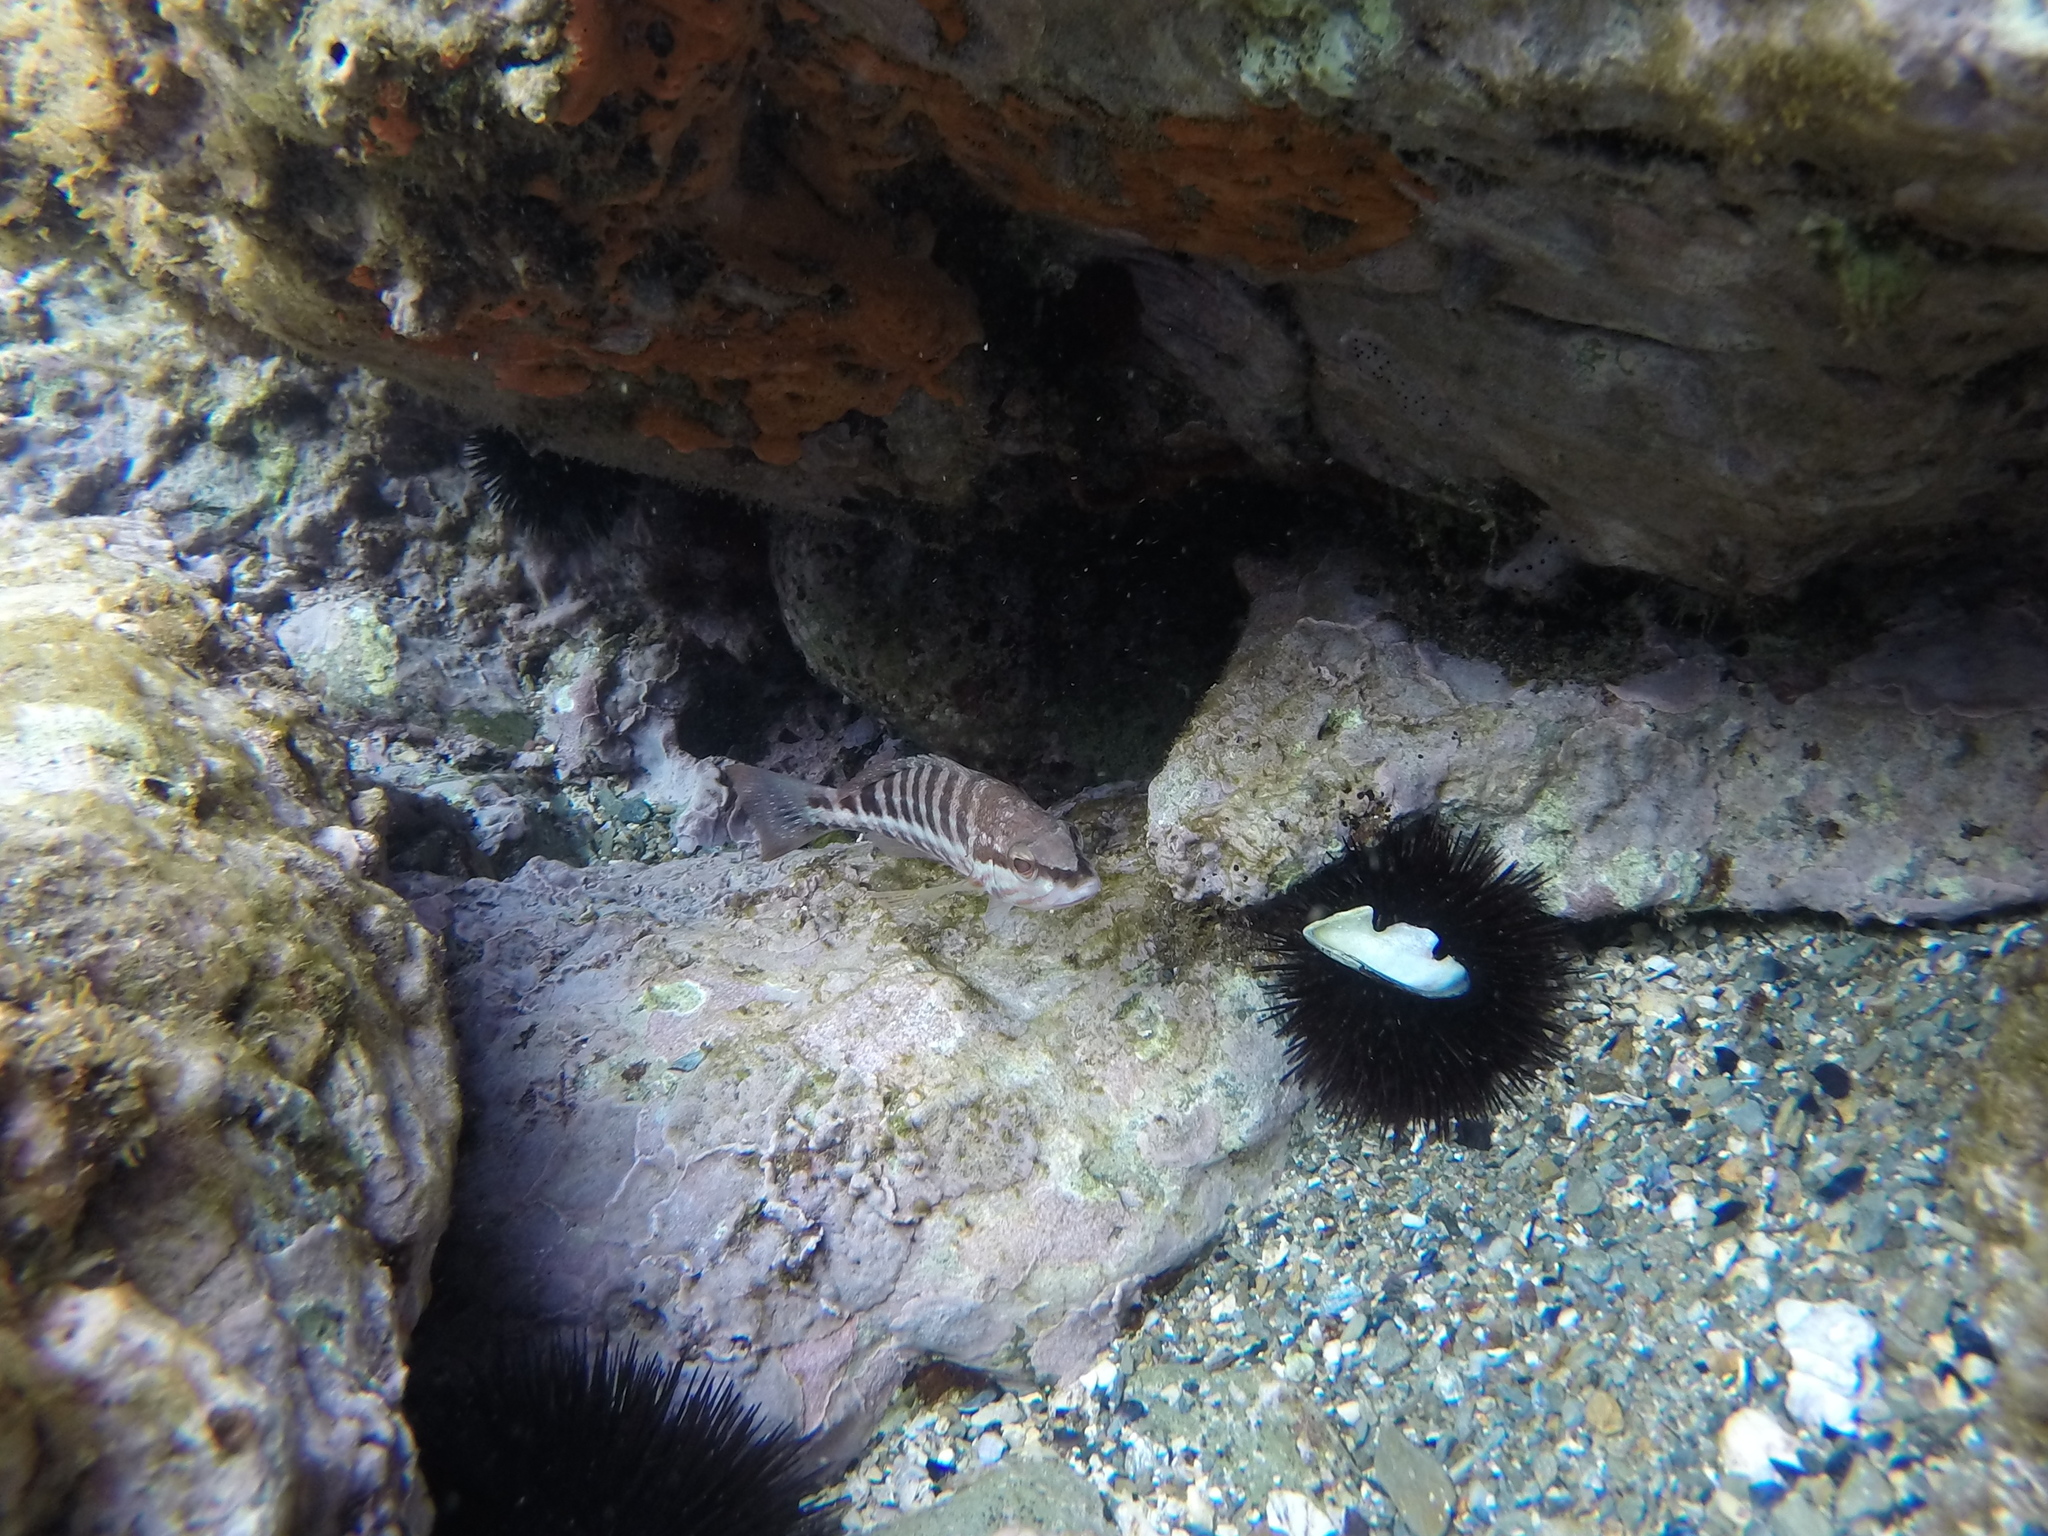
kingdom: Animalia
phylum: Chordata
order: Perciformes
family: Serranidae
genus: Serranus
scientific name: Serranus cabrilla
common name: Comber
